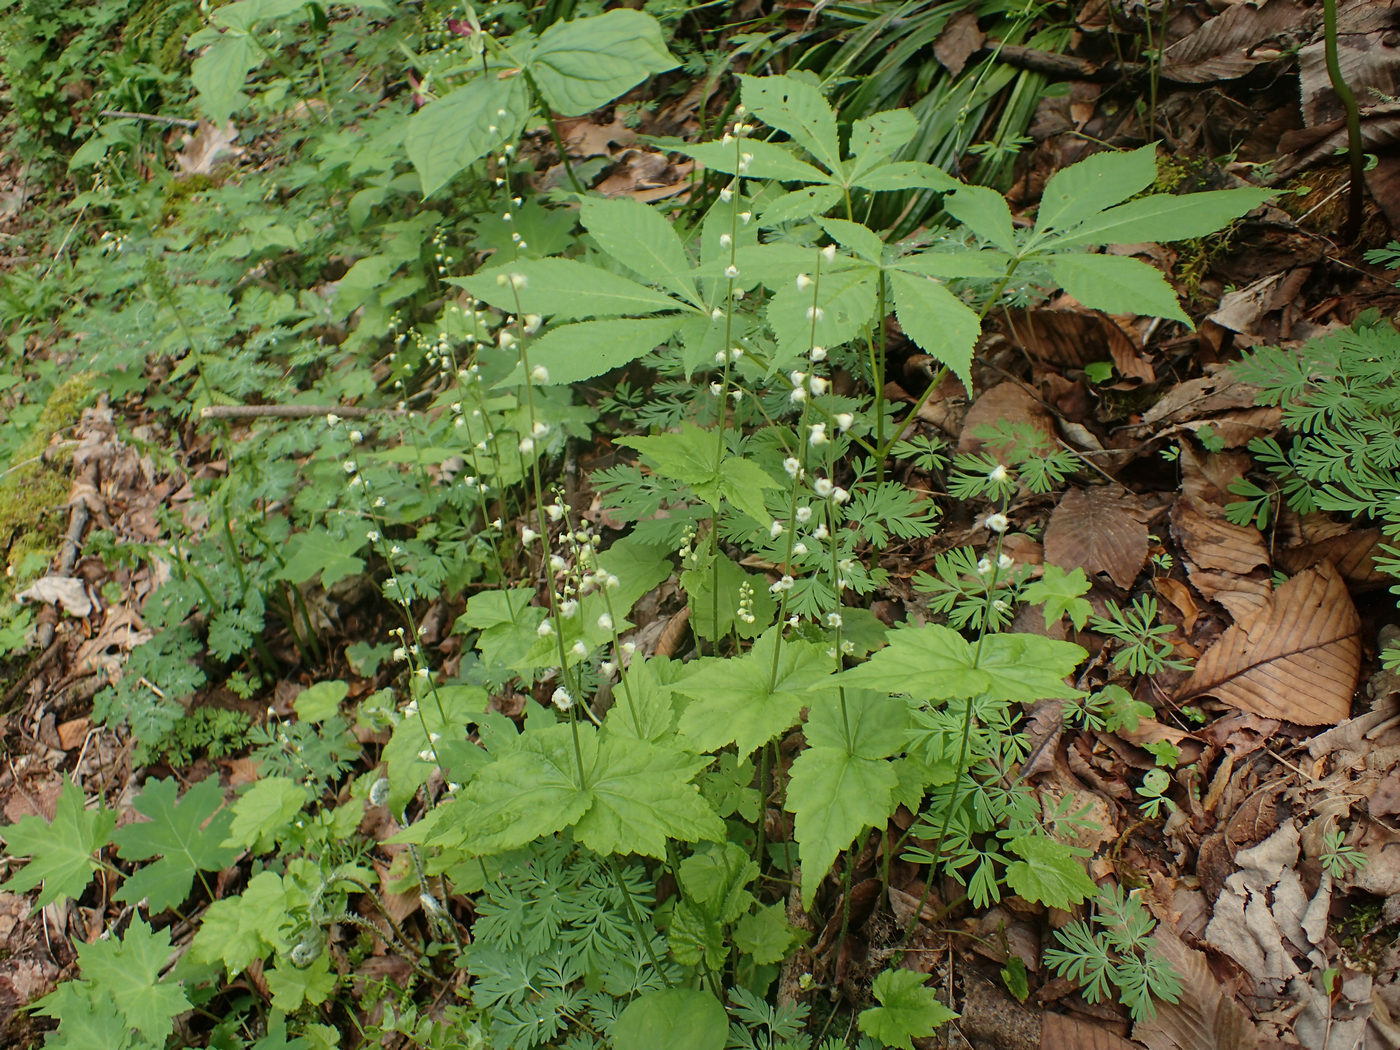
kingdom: Plantae
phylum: Tracheophyta
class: Magnoliopsida
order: Saxifragales
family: Saxifragaceae
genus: Mitella
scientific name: Mitella diphylla
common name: Coolwort
